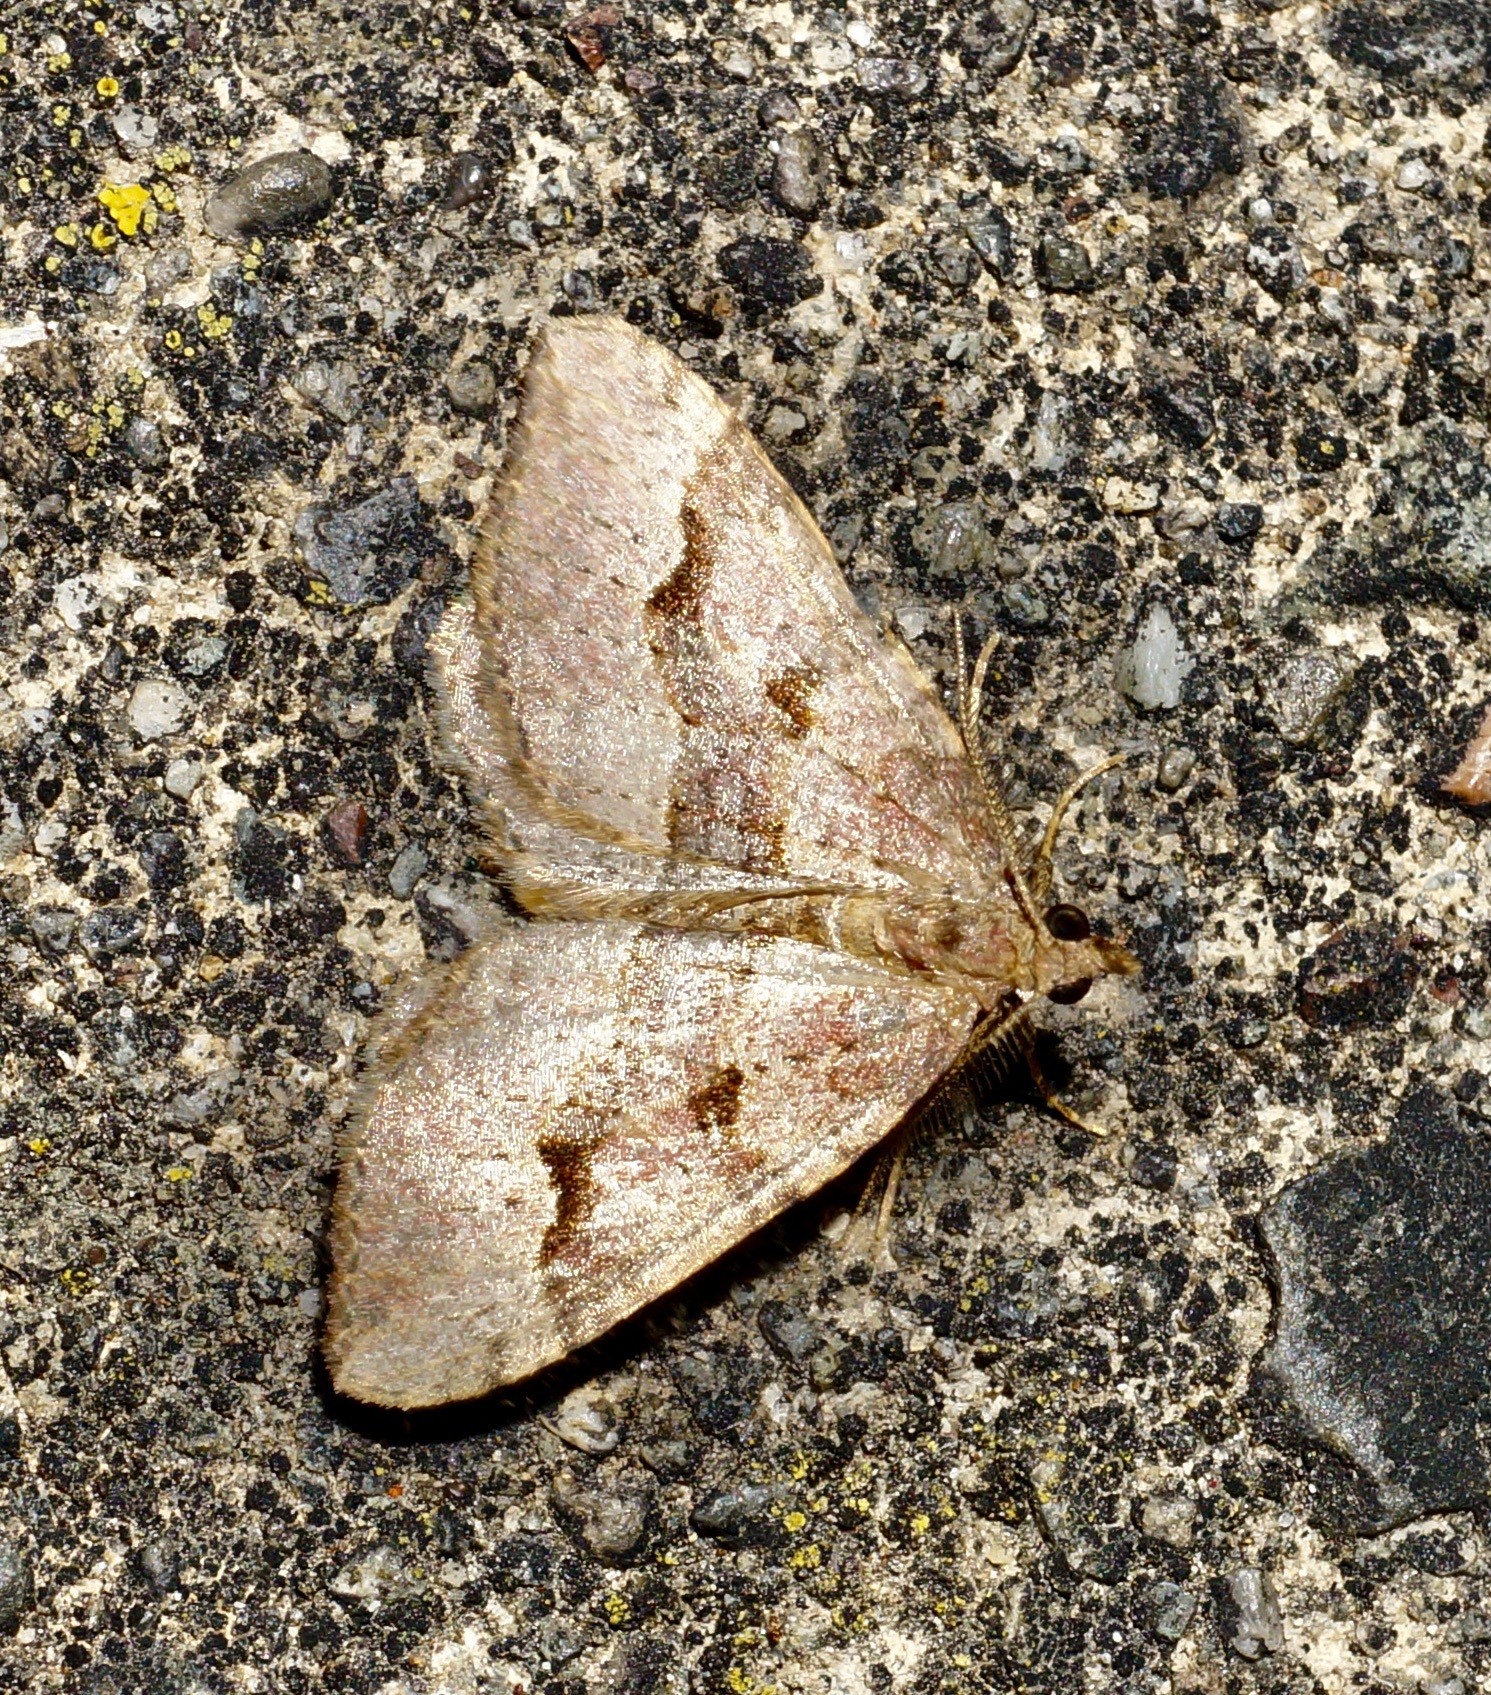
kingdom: Animalia
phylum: Arthropoda
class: Insecta
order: Lepidoptera
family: Geometridae
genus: Epyaxa
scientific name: Epyaxa rosearia
